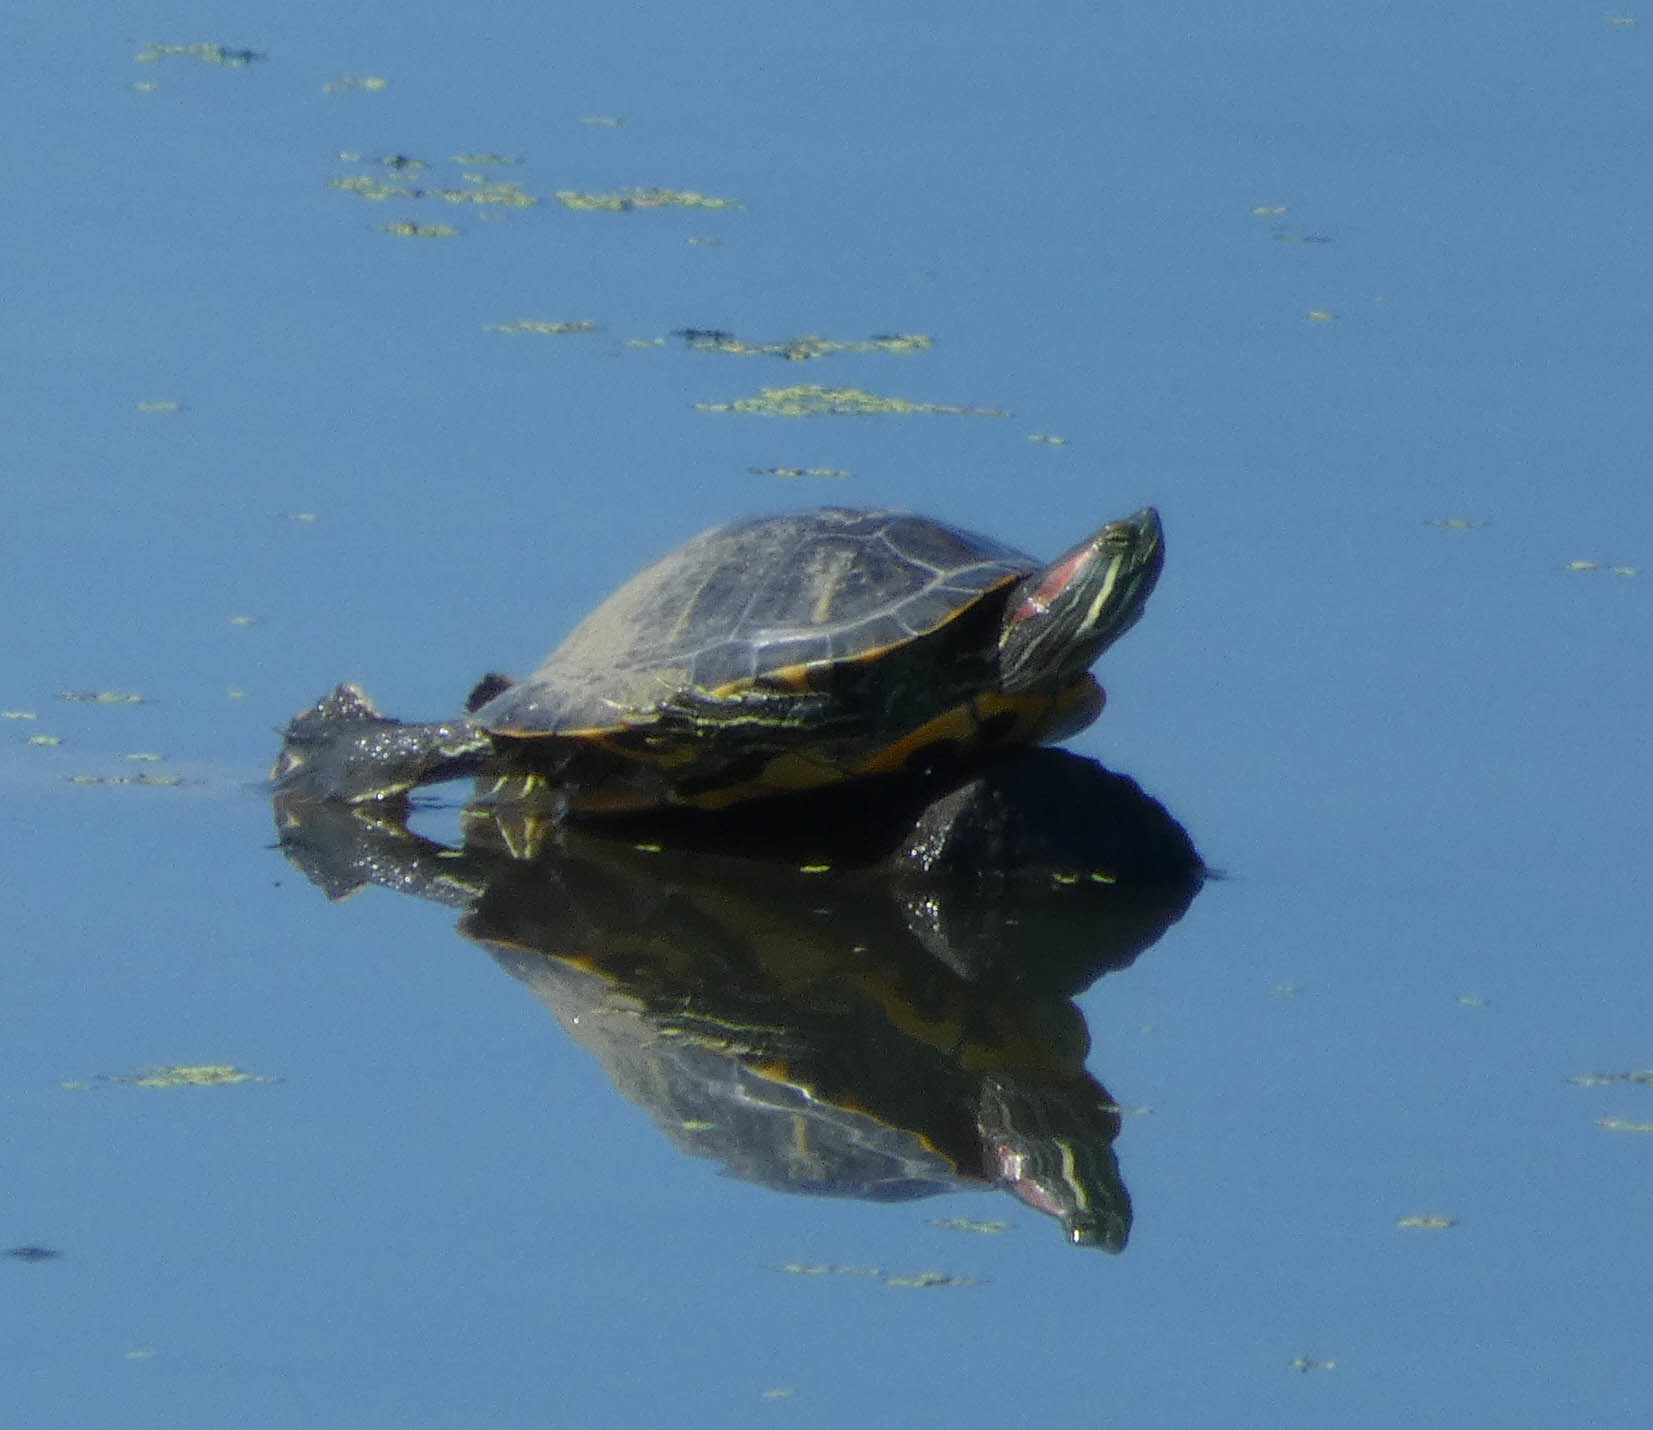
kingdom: Animalia
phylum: Chordata
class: Testudines
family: Emydidae
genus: Trachemys
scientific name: Trachemys scripta
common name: Slider
